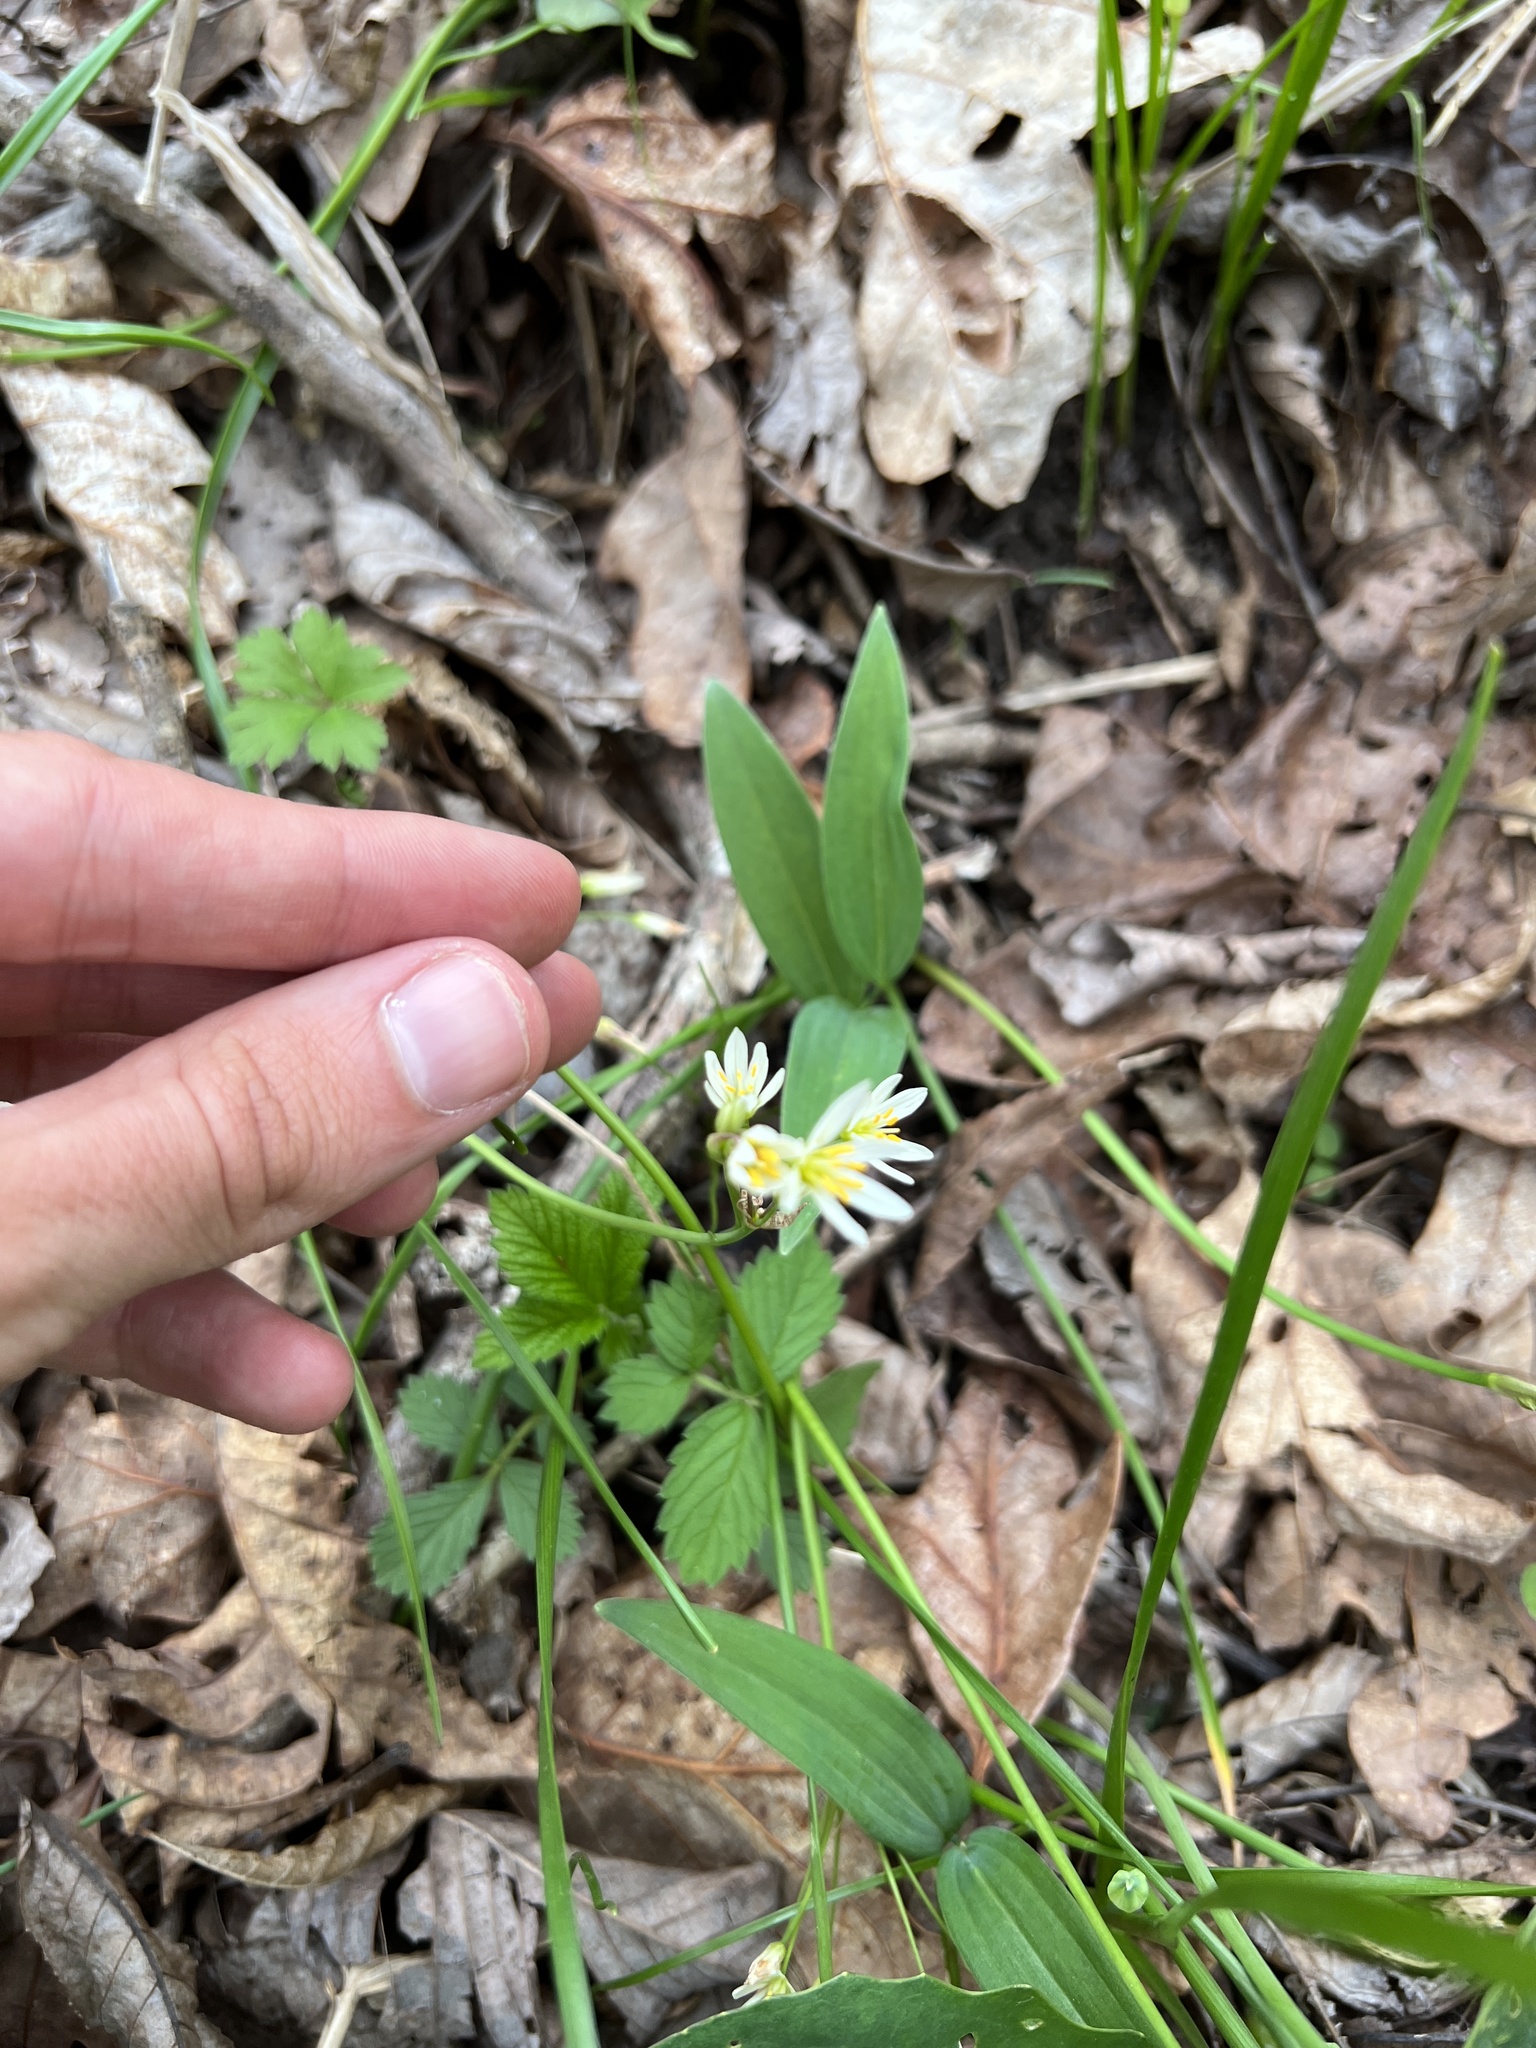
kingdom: Plantae
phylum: Tracheophyta
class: Liliopsida
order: Asparagales
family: Amaryllidaceae
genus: Nothoscordum
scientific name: Nothoscordum bivalve
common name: Crow-poison
